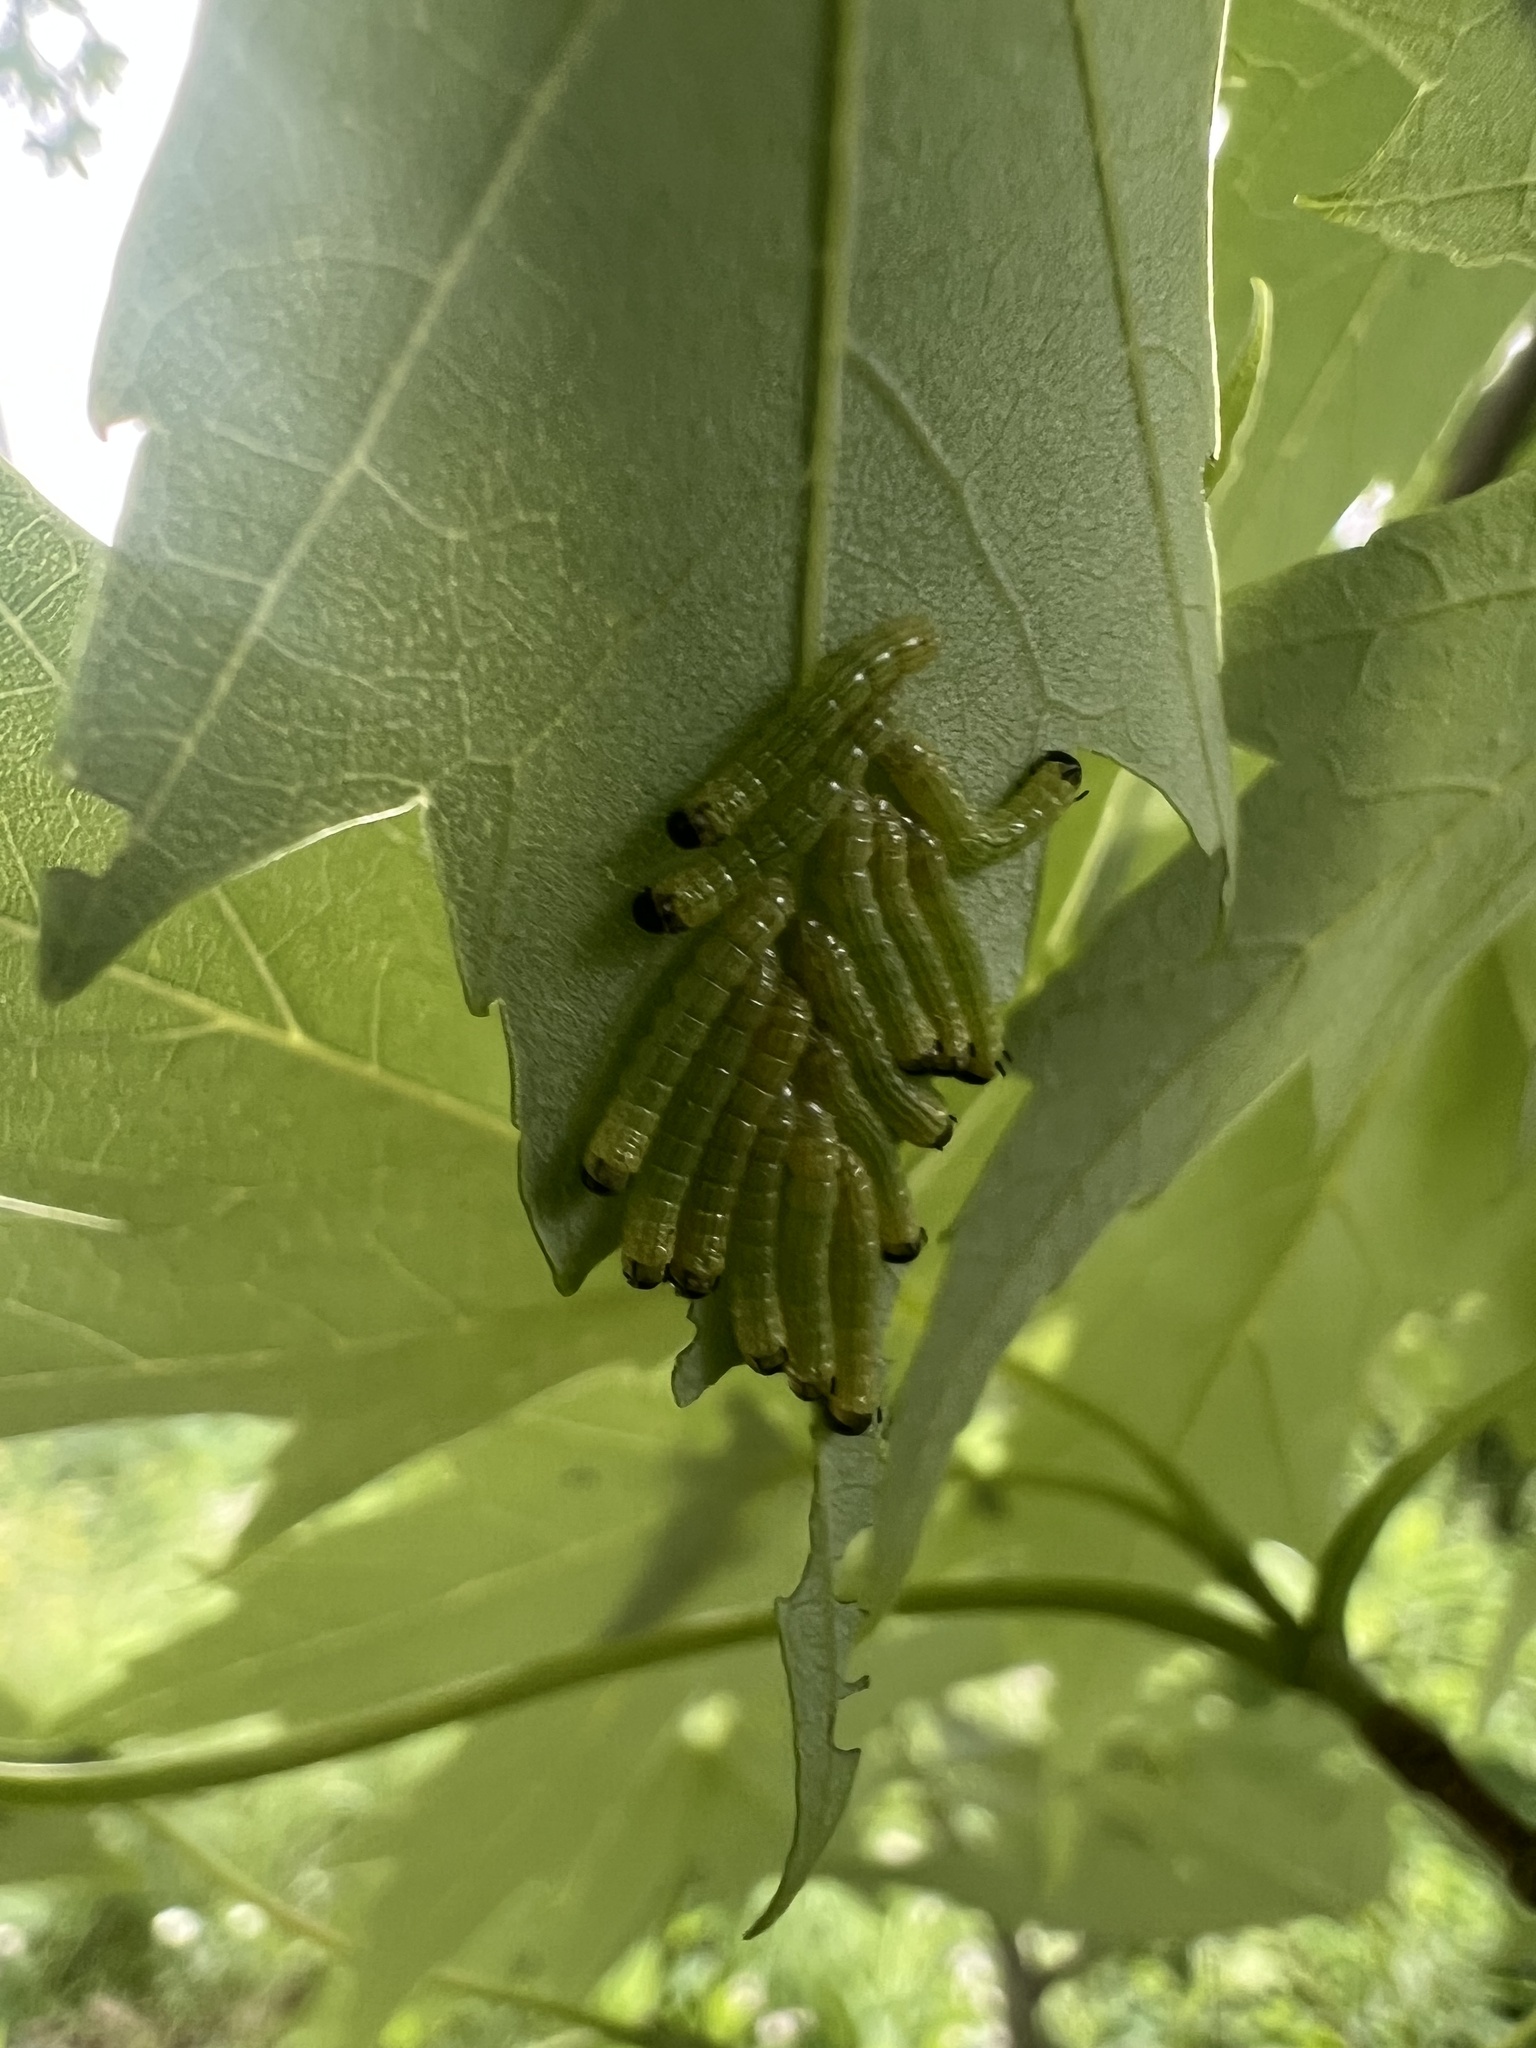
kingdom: Animalia
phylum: Arthropoda
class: Insecta
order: Lepidoptera
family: Saturniidae
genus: Dryocampa
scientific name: Dryocampa rubicunda
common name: Rosy maple moth
